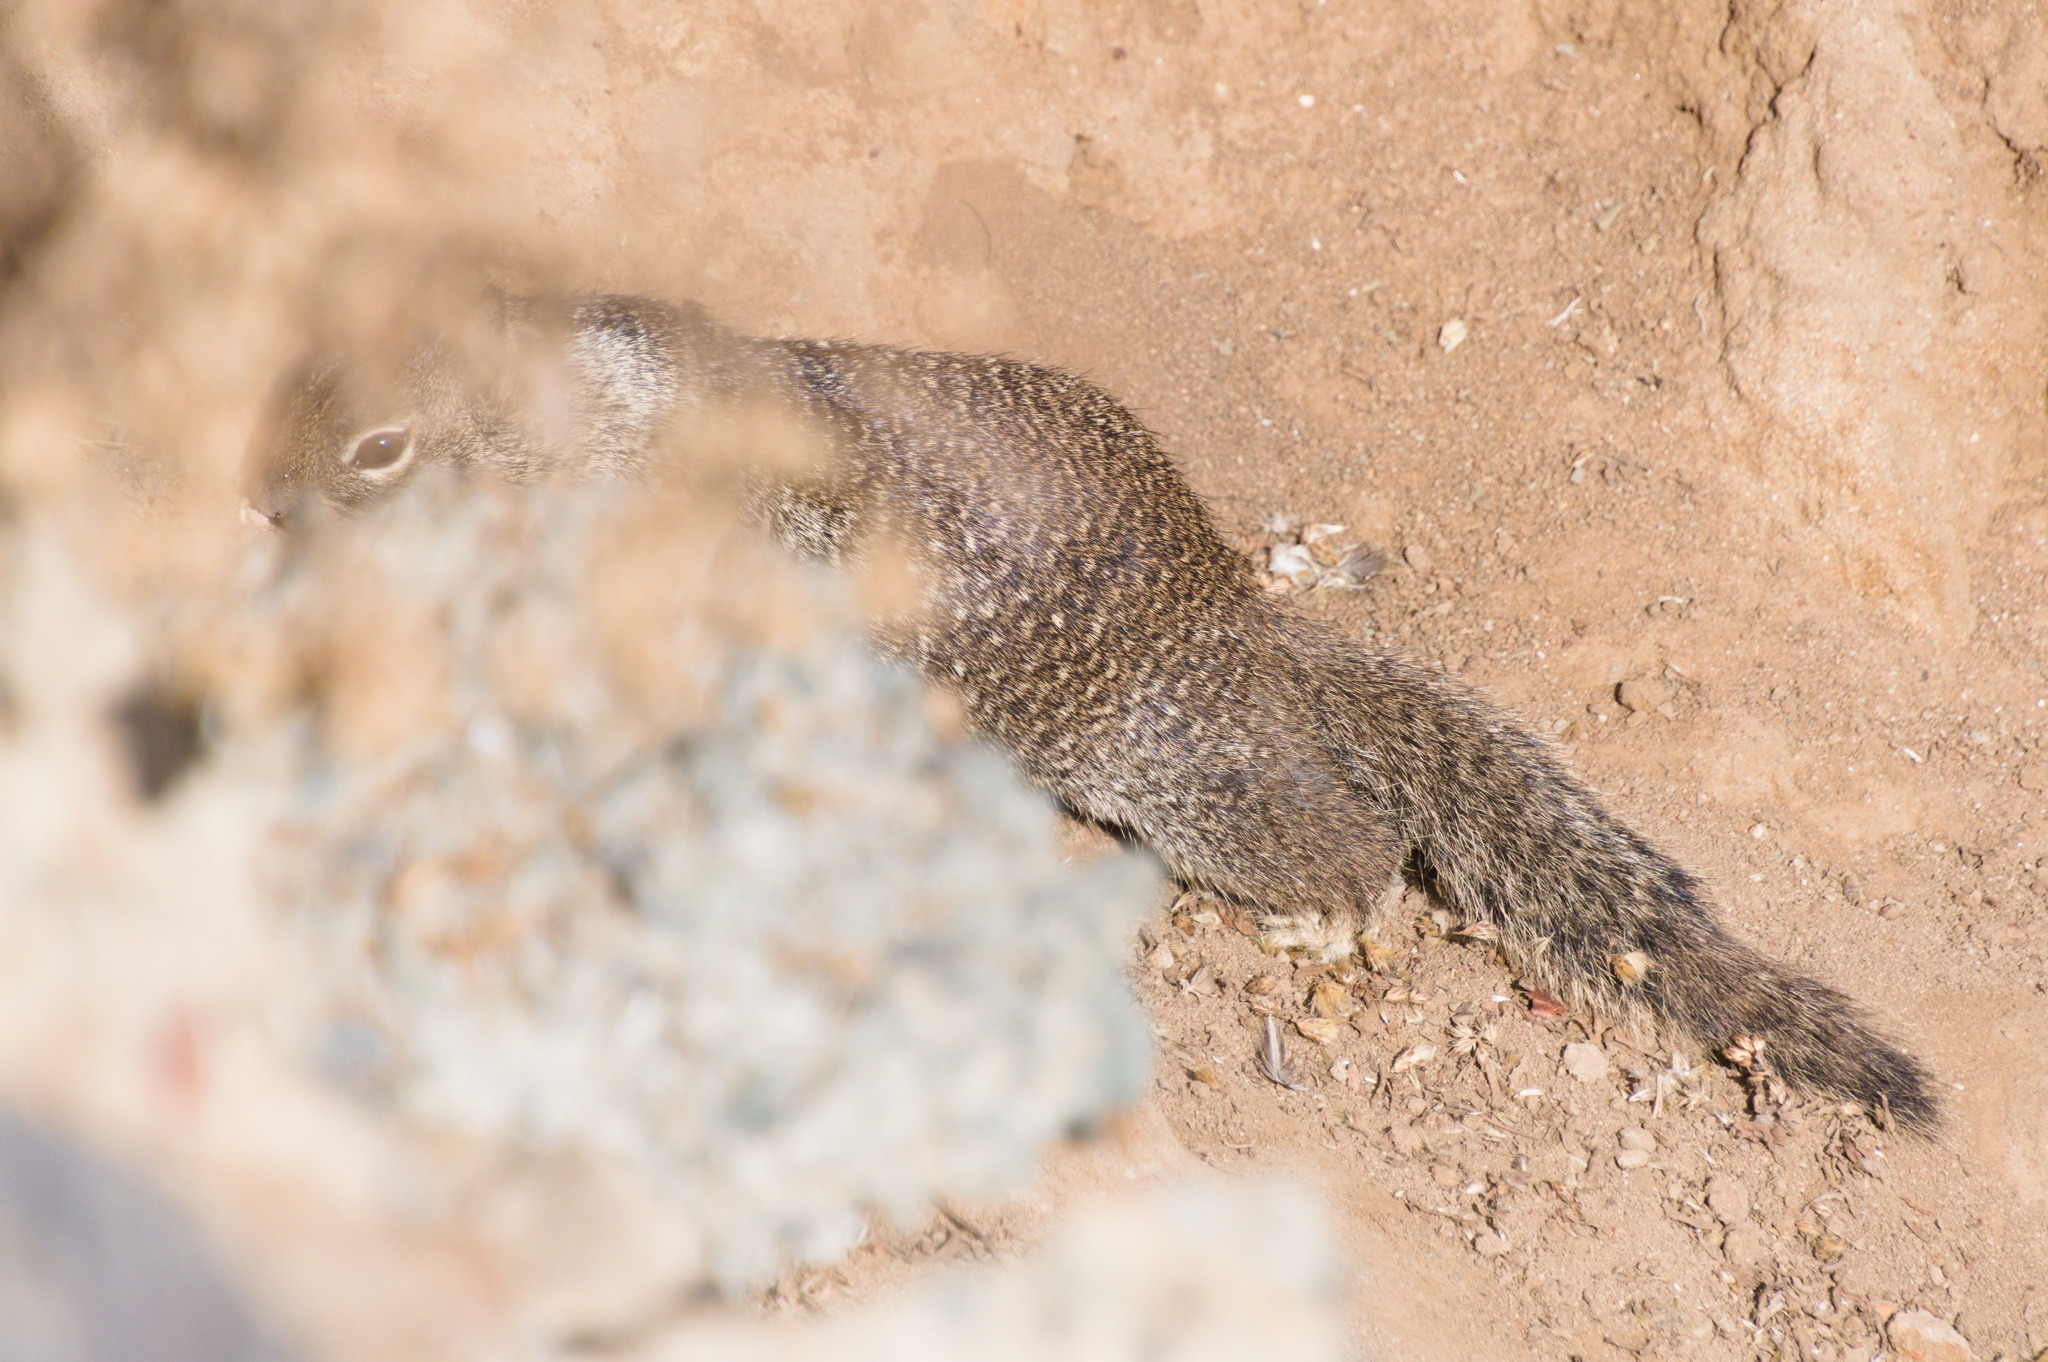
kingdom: Animalia
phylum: Chordata
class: Mammalia
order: Rodentia
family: Sciuridae
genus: Otospermophilus
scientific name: Otospermophilus beecheyi
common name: California ground squirrel
